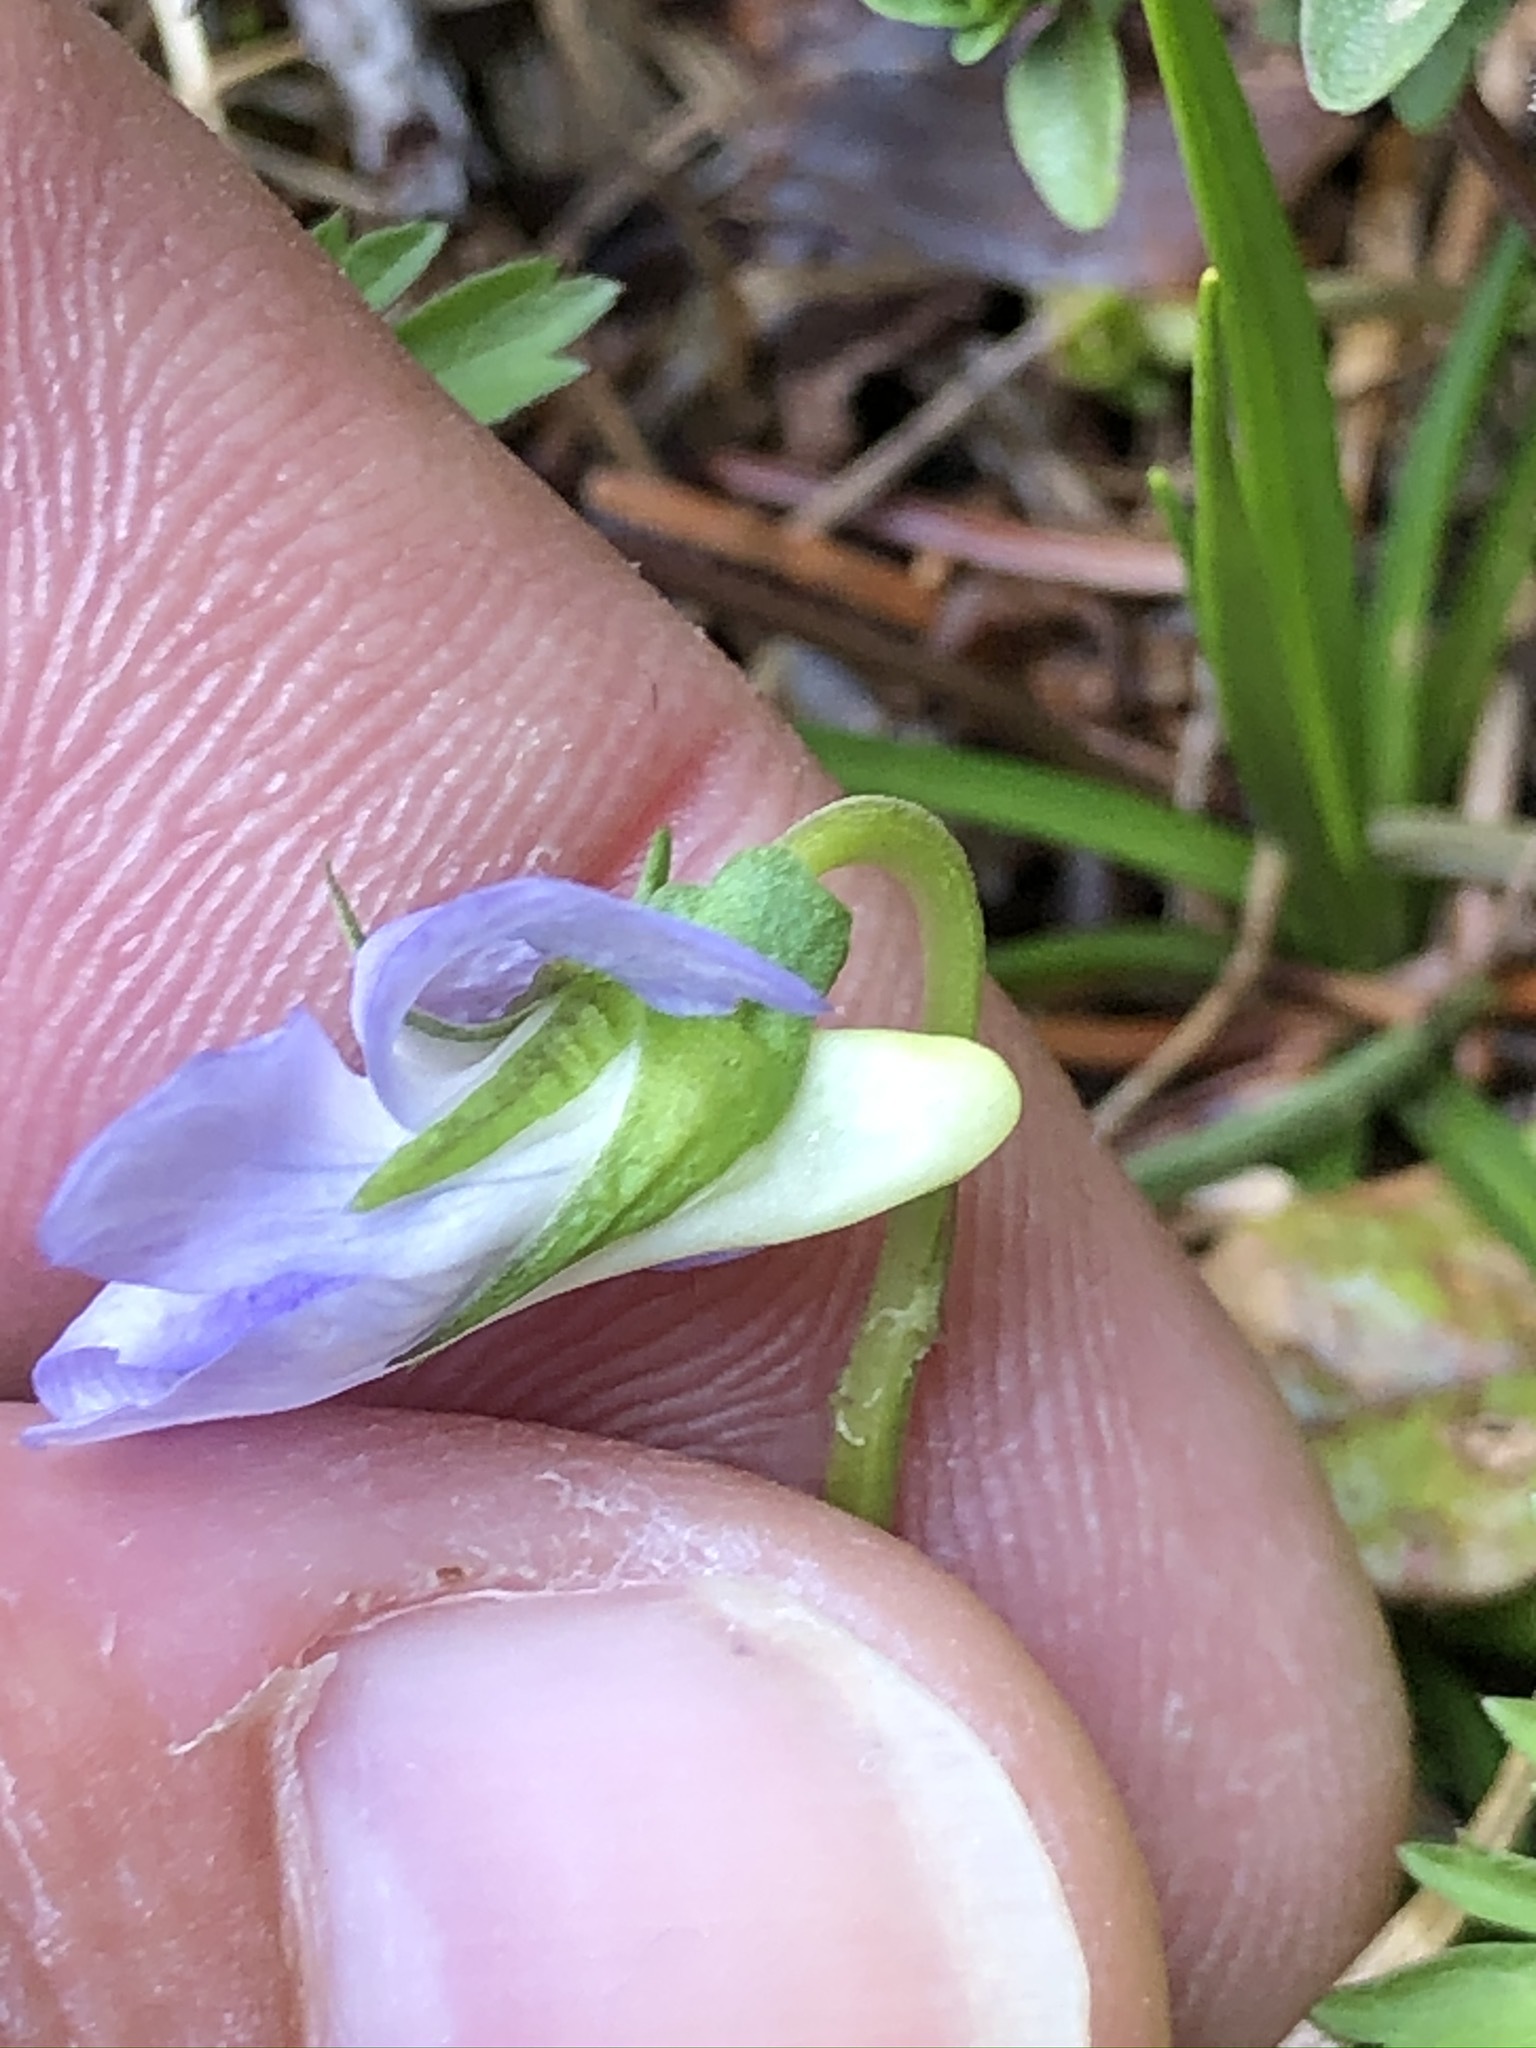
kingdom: Plantae
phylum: Tracheophyta
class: Magnoliopsida
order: Malpighiales
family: Violaceae
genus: Viola
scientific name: Viola riviniana
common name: Common dog-violet
